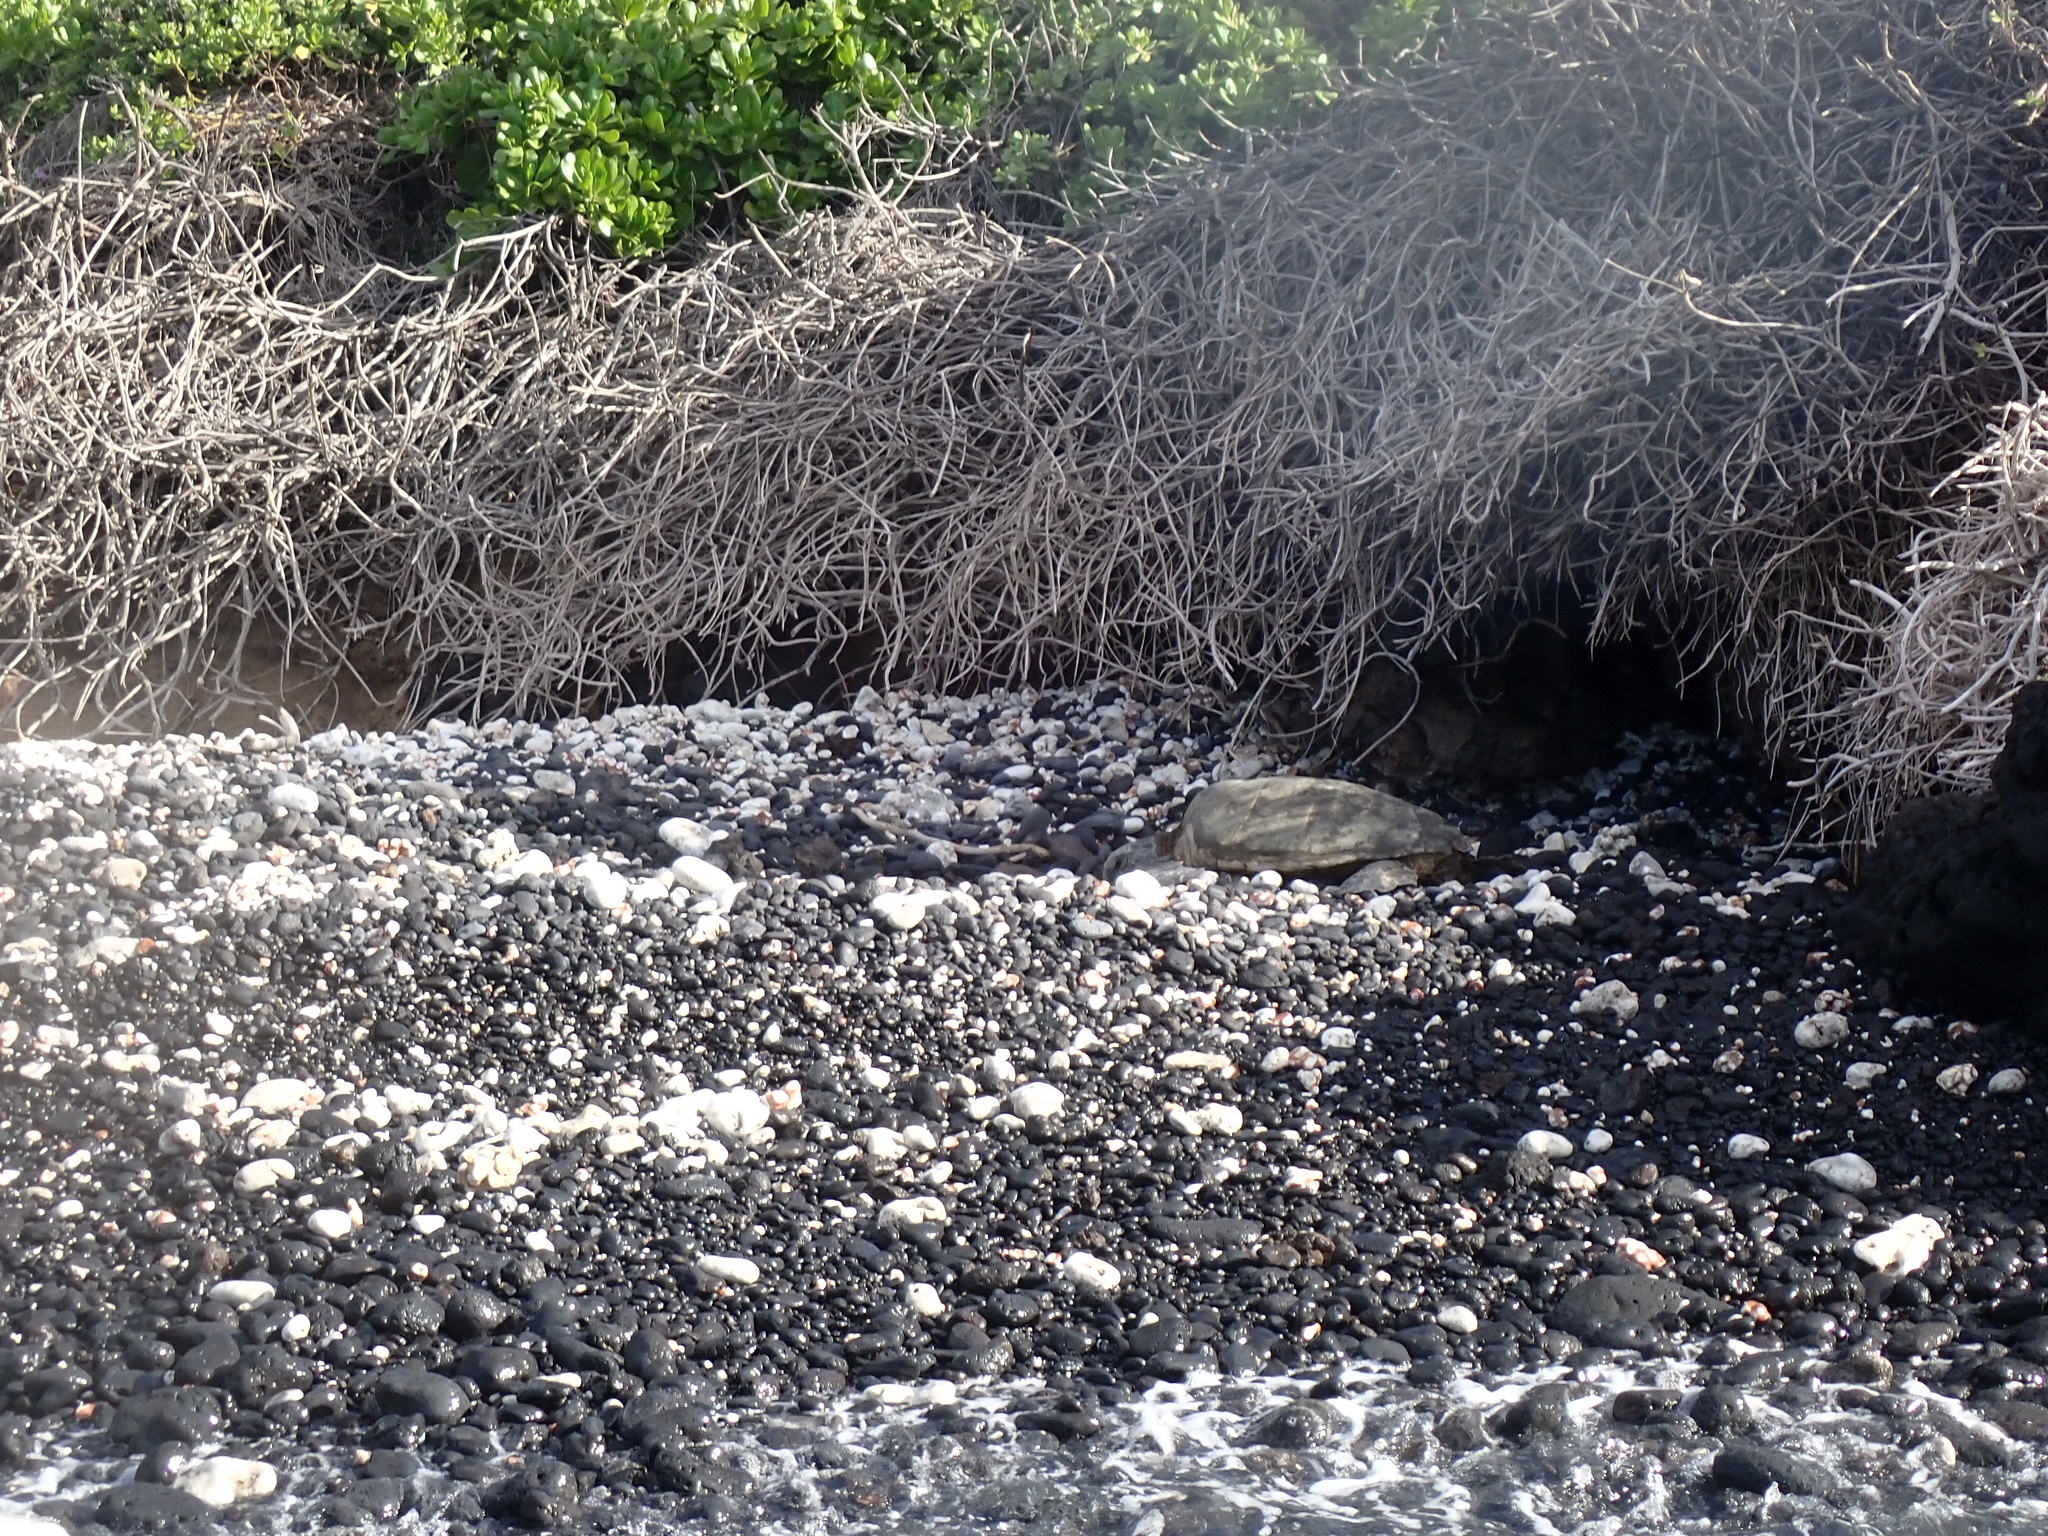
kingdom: Animalia
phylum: Chordata
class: Testudines
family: Cheloniidae
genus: Chelonia
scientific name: Chelonia mydas
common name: Green turtle
